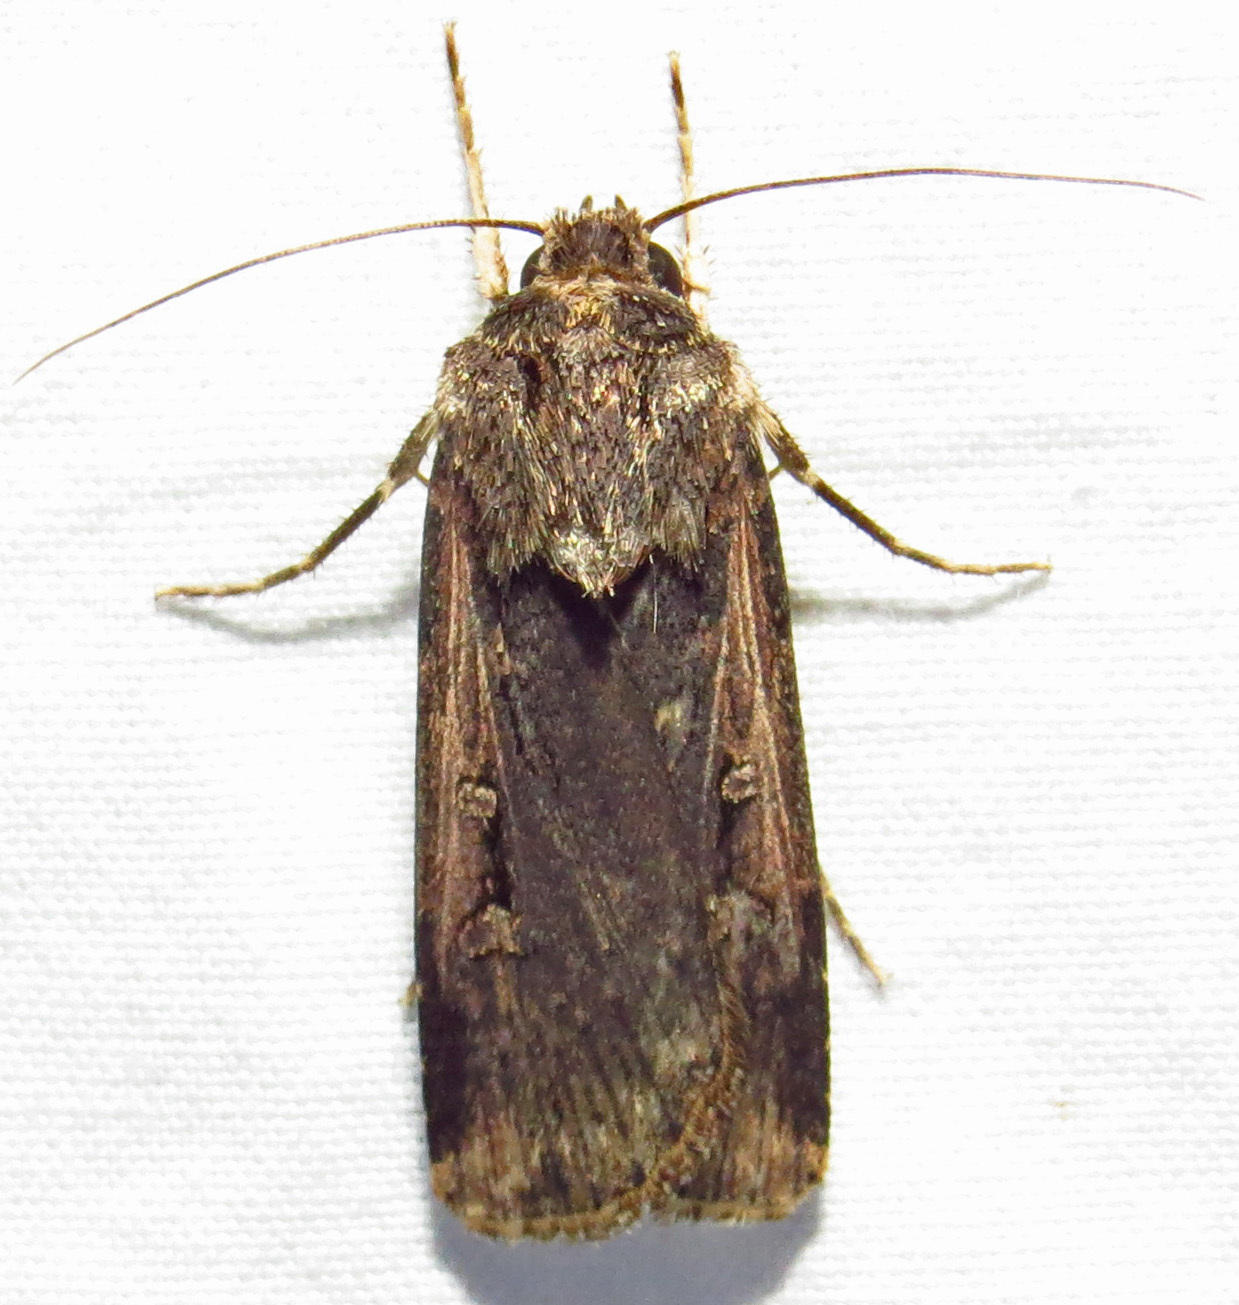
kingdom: Animalia
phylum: Arthropoda
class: Insecta
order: Lepidoptera
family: Noctuidae
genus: Feltia
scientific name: Feltia subterranea
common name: Granulate cutworm
